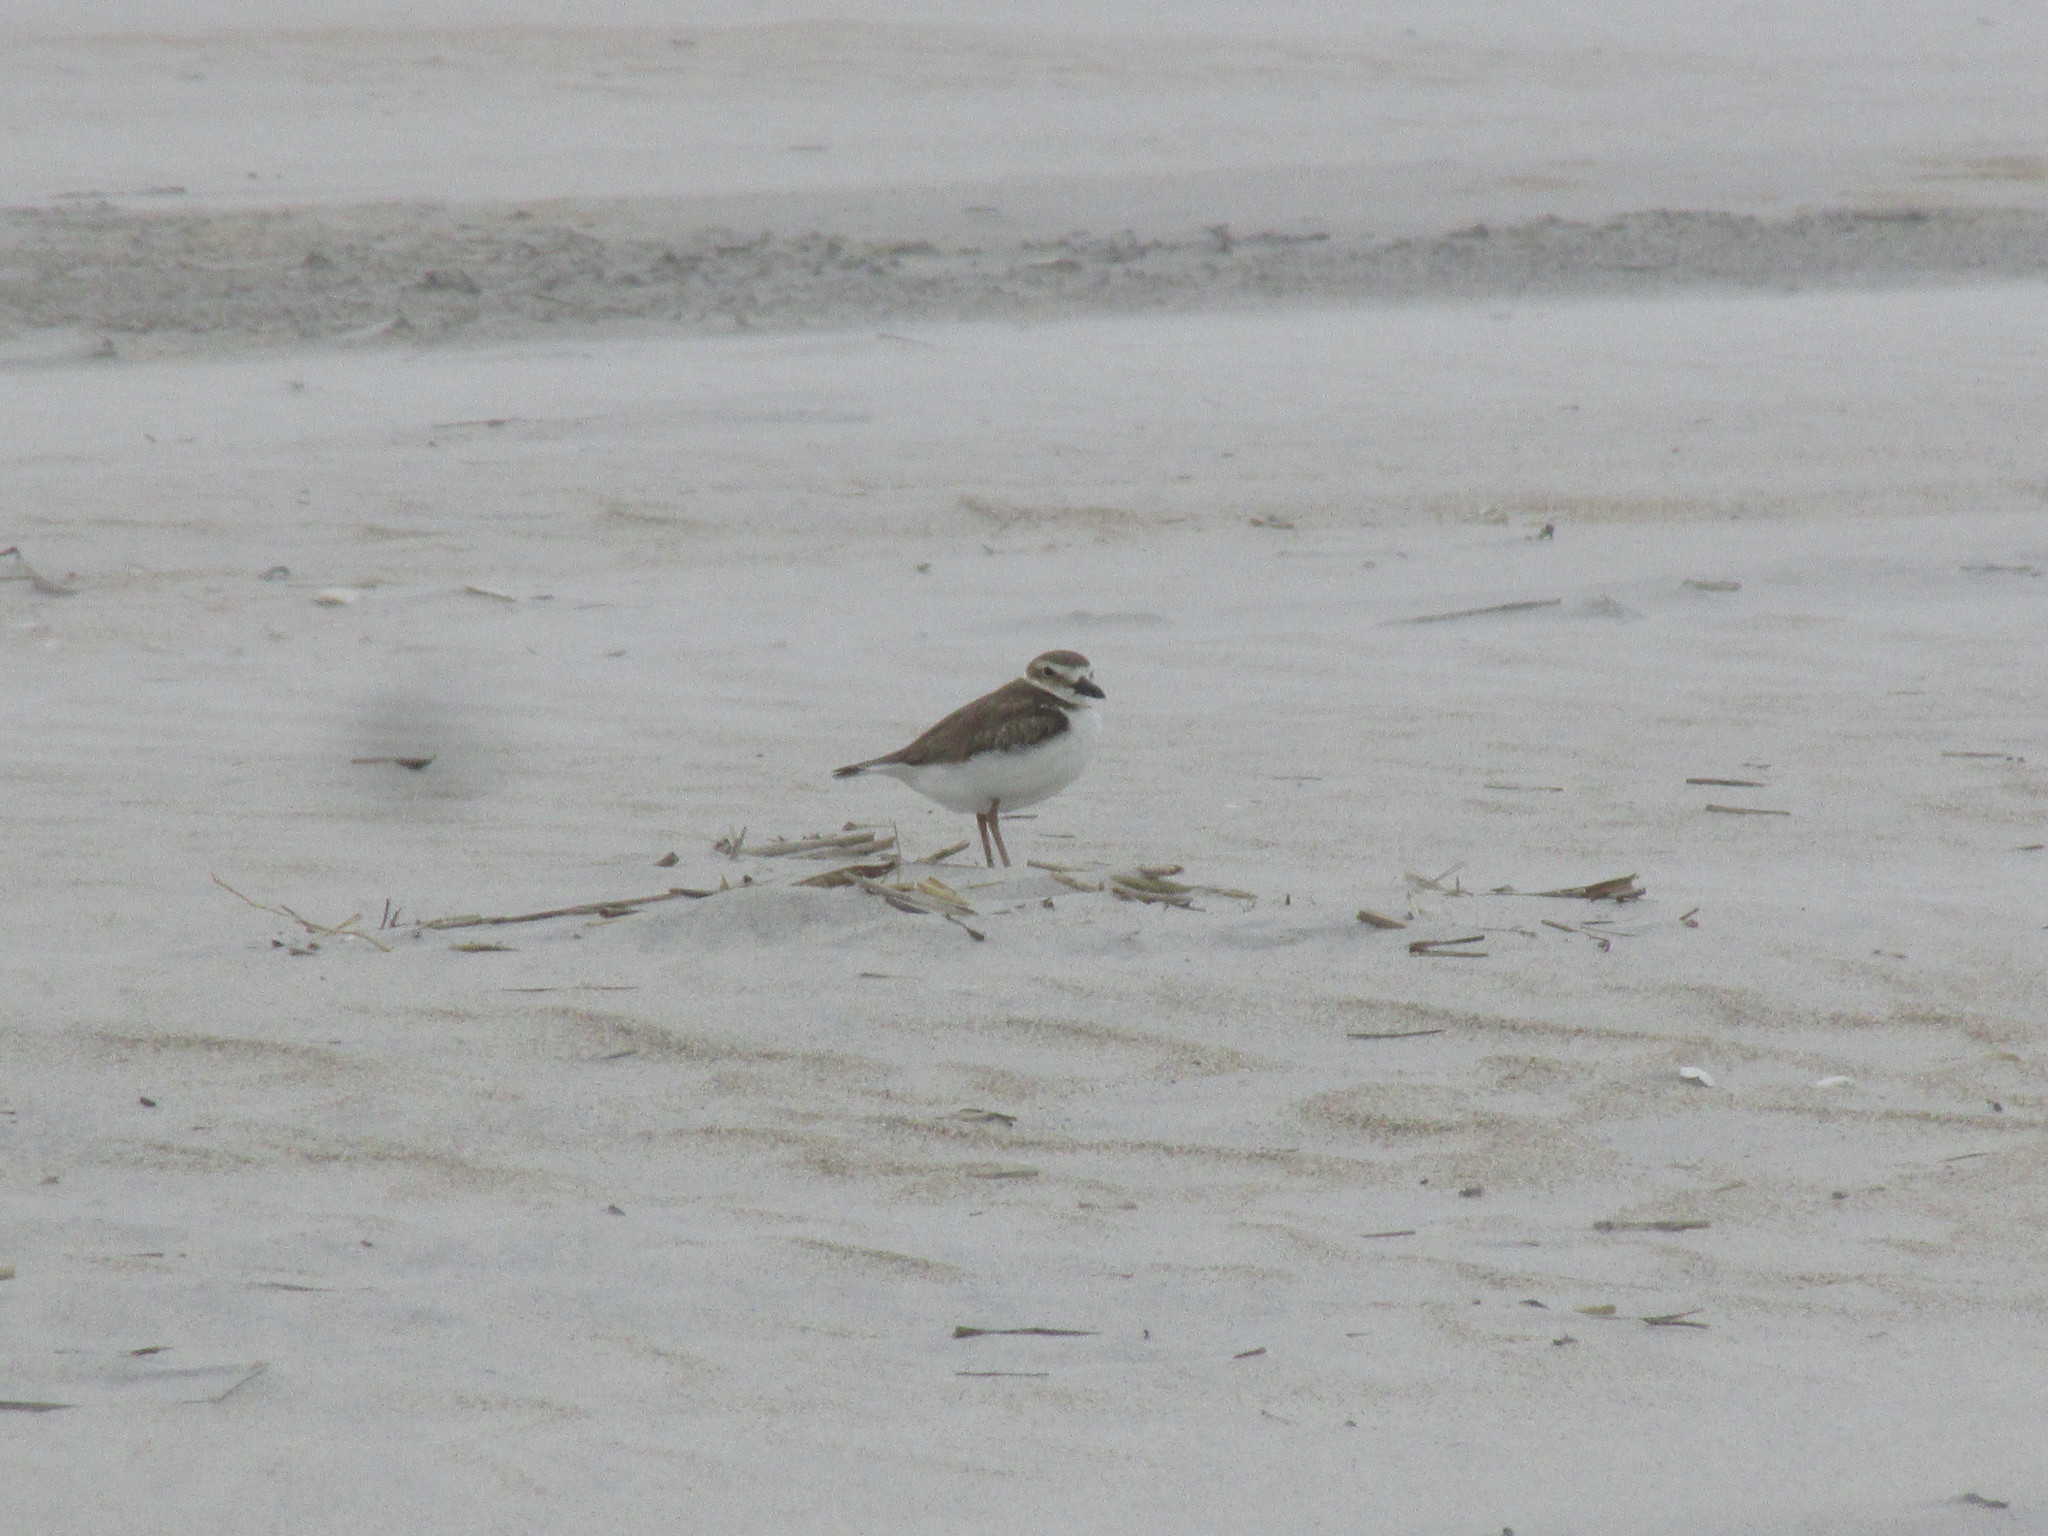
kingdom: Animalia
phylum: Chordata
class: Aves
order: Charadriiformes
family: Charadriidae
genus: Anarhynchus
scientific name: Anarhynchus
